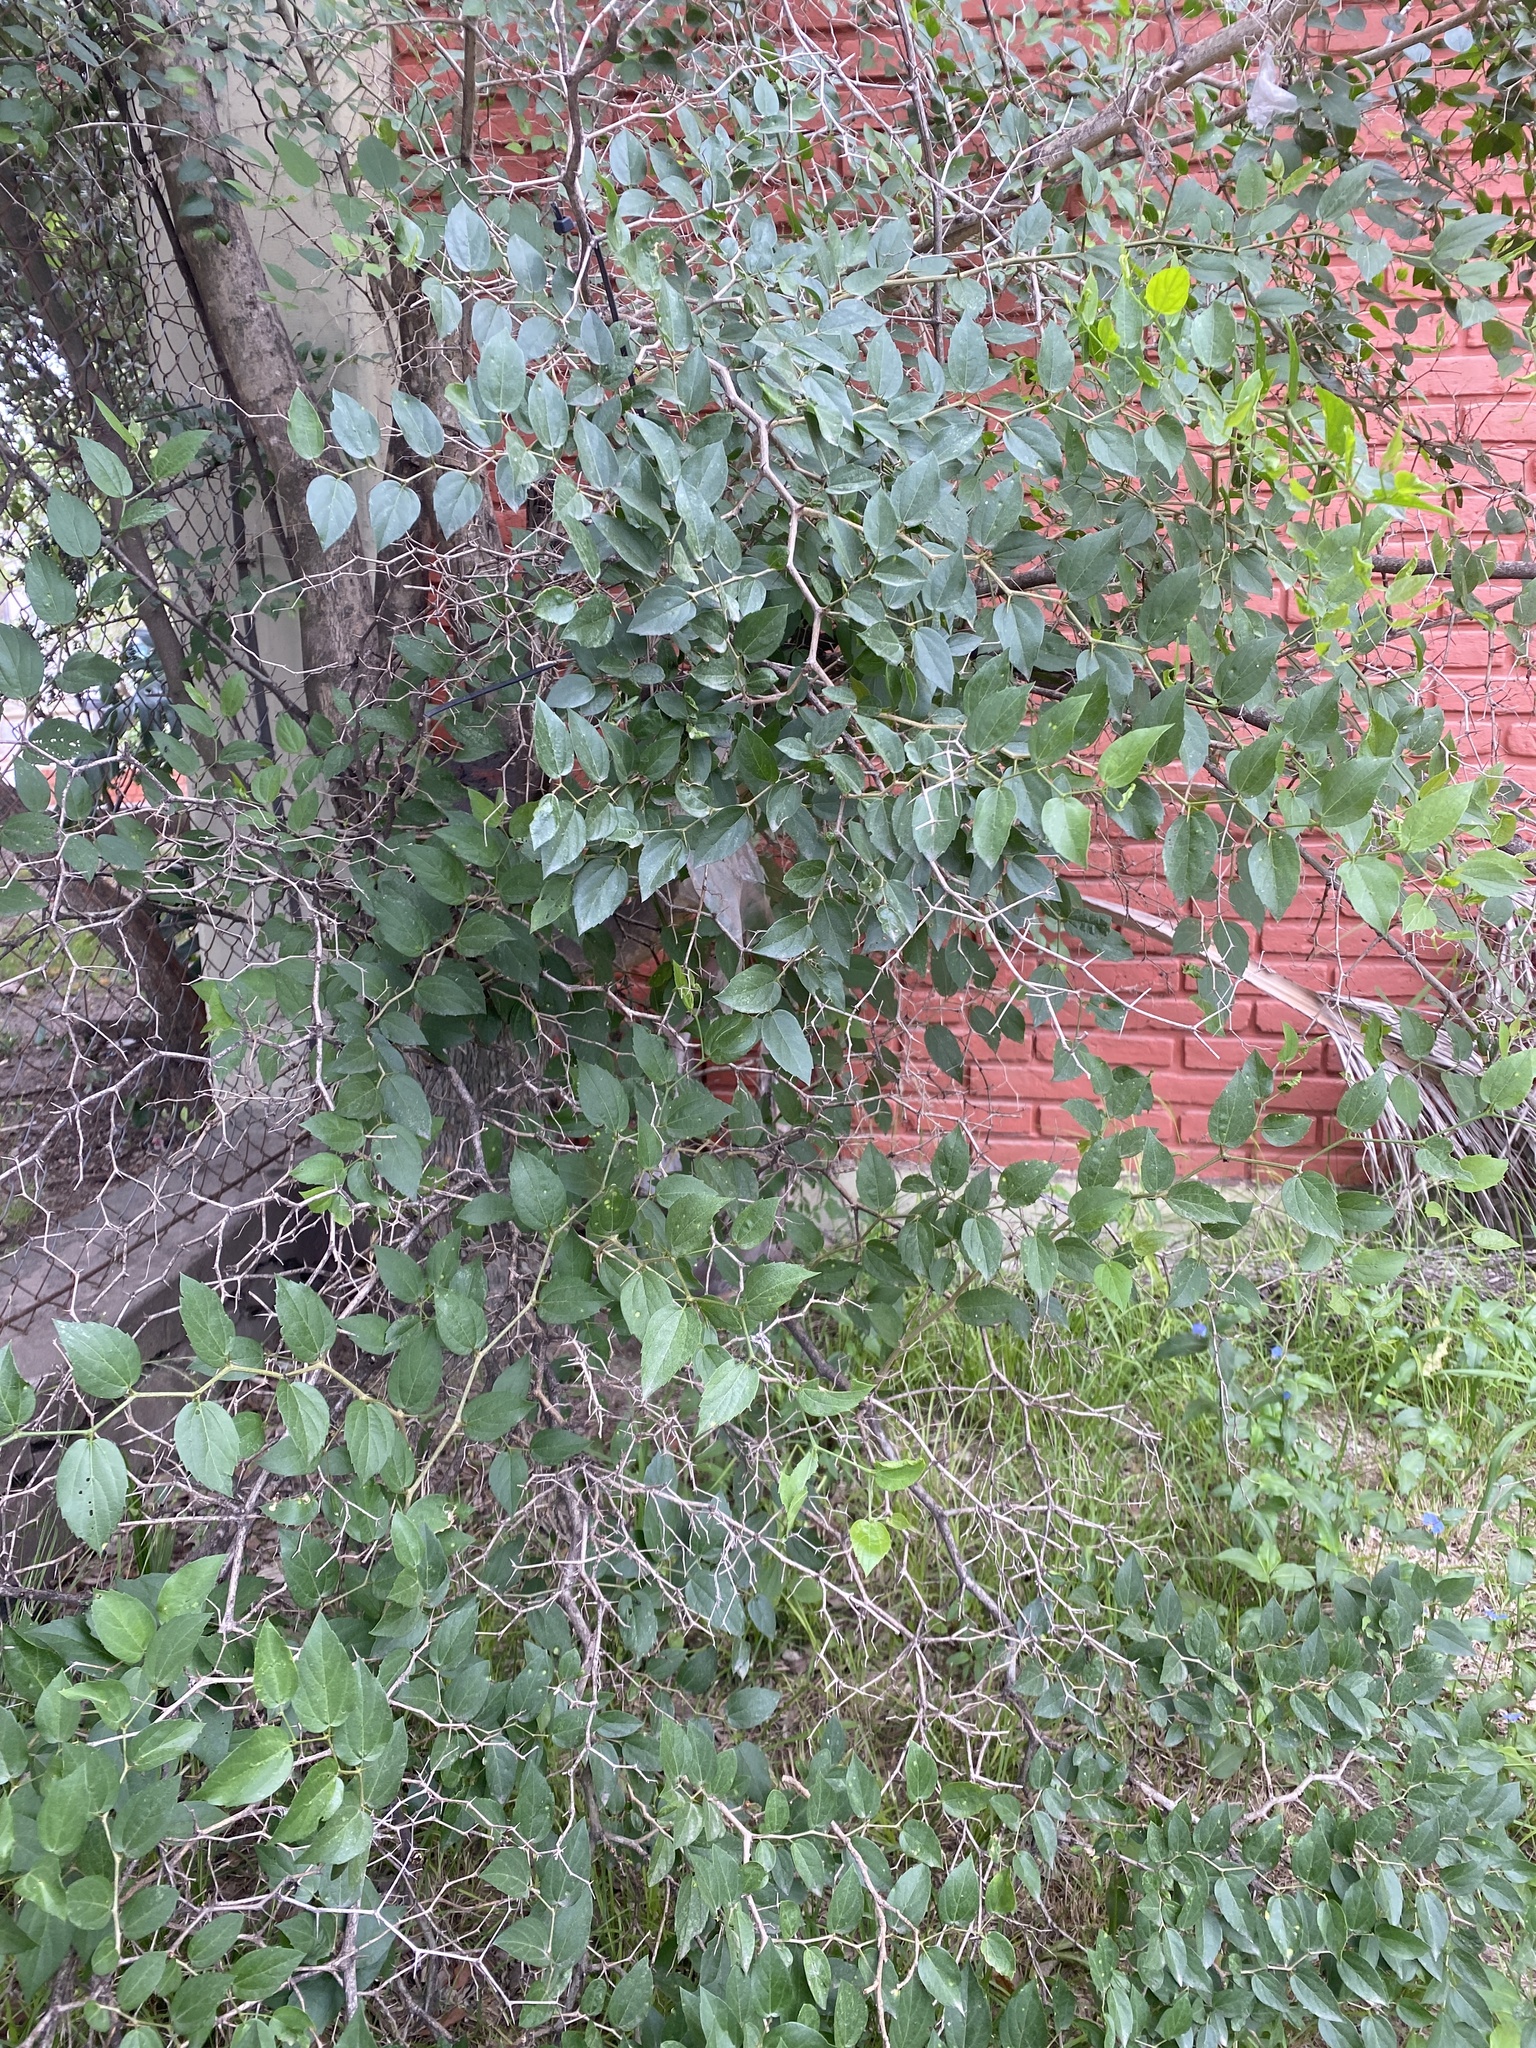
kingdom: Plantae
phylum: Tracheophyta
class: Magnoliopsida
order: Rosales
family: Cannabaceae
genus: Celtis
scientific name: Celtis tala
